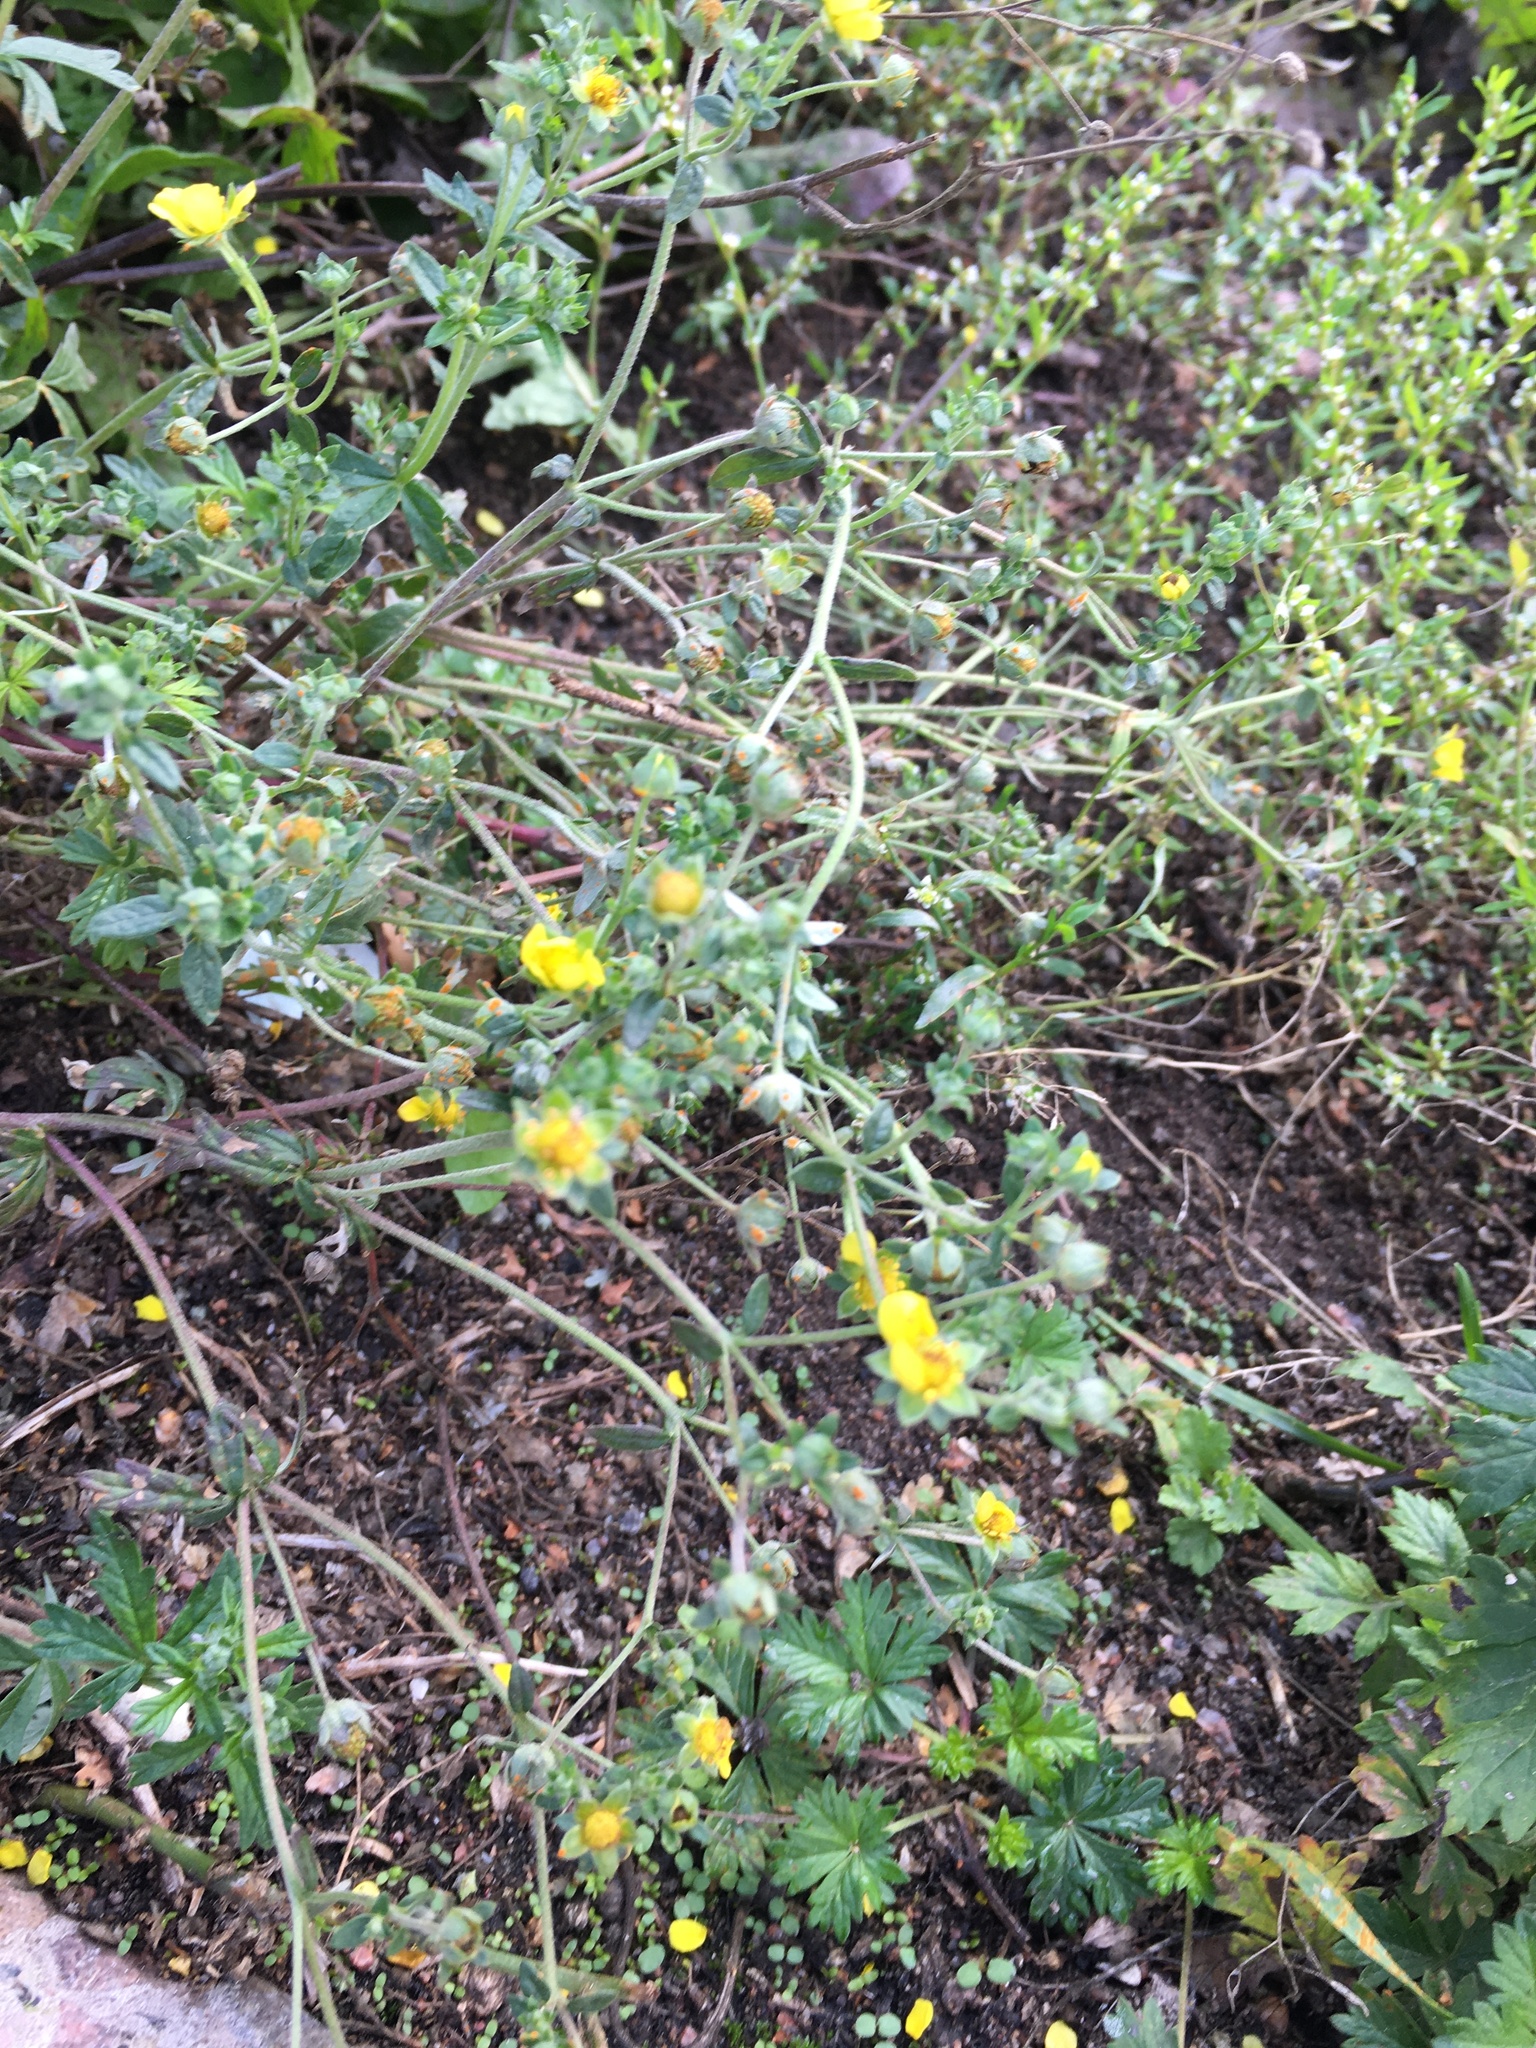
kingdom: Plantae
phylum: Tracheophyta
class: Magnoliopsida
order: Rosales
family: Rosaceae
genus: Potentilla
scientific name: Potentilla argentea
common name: Hoary cinquefoil
